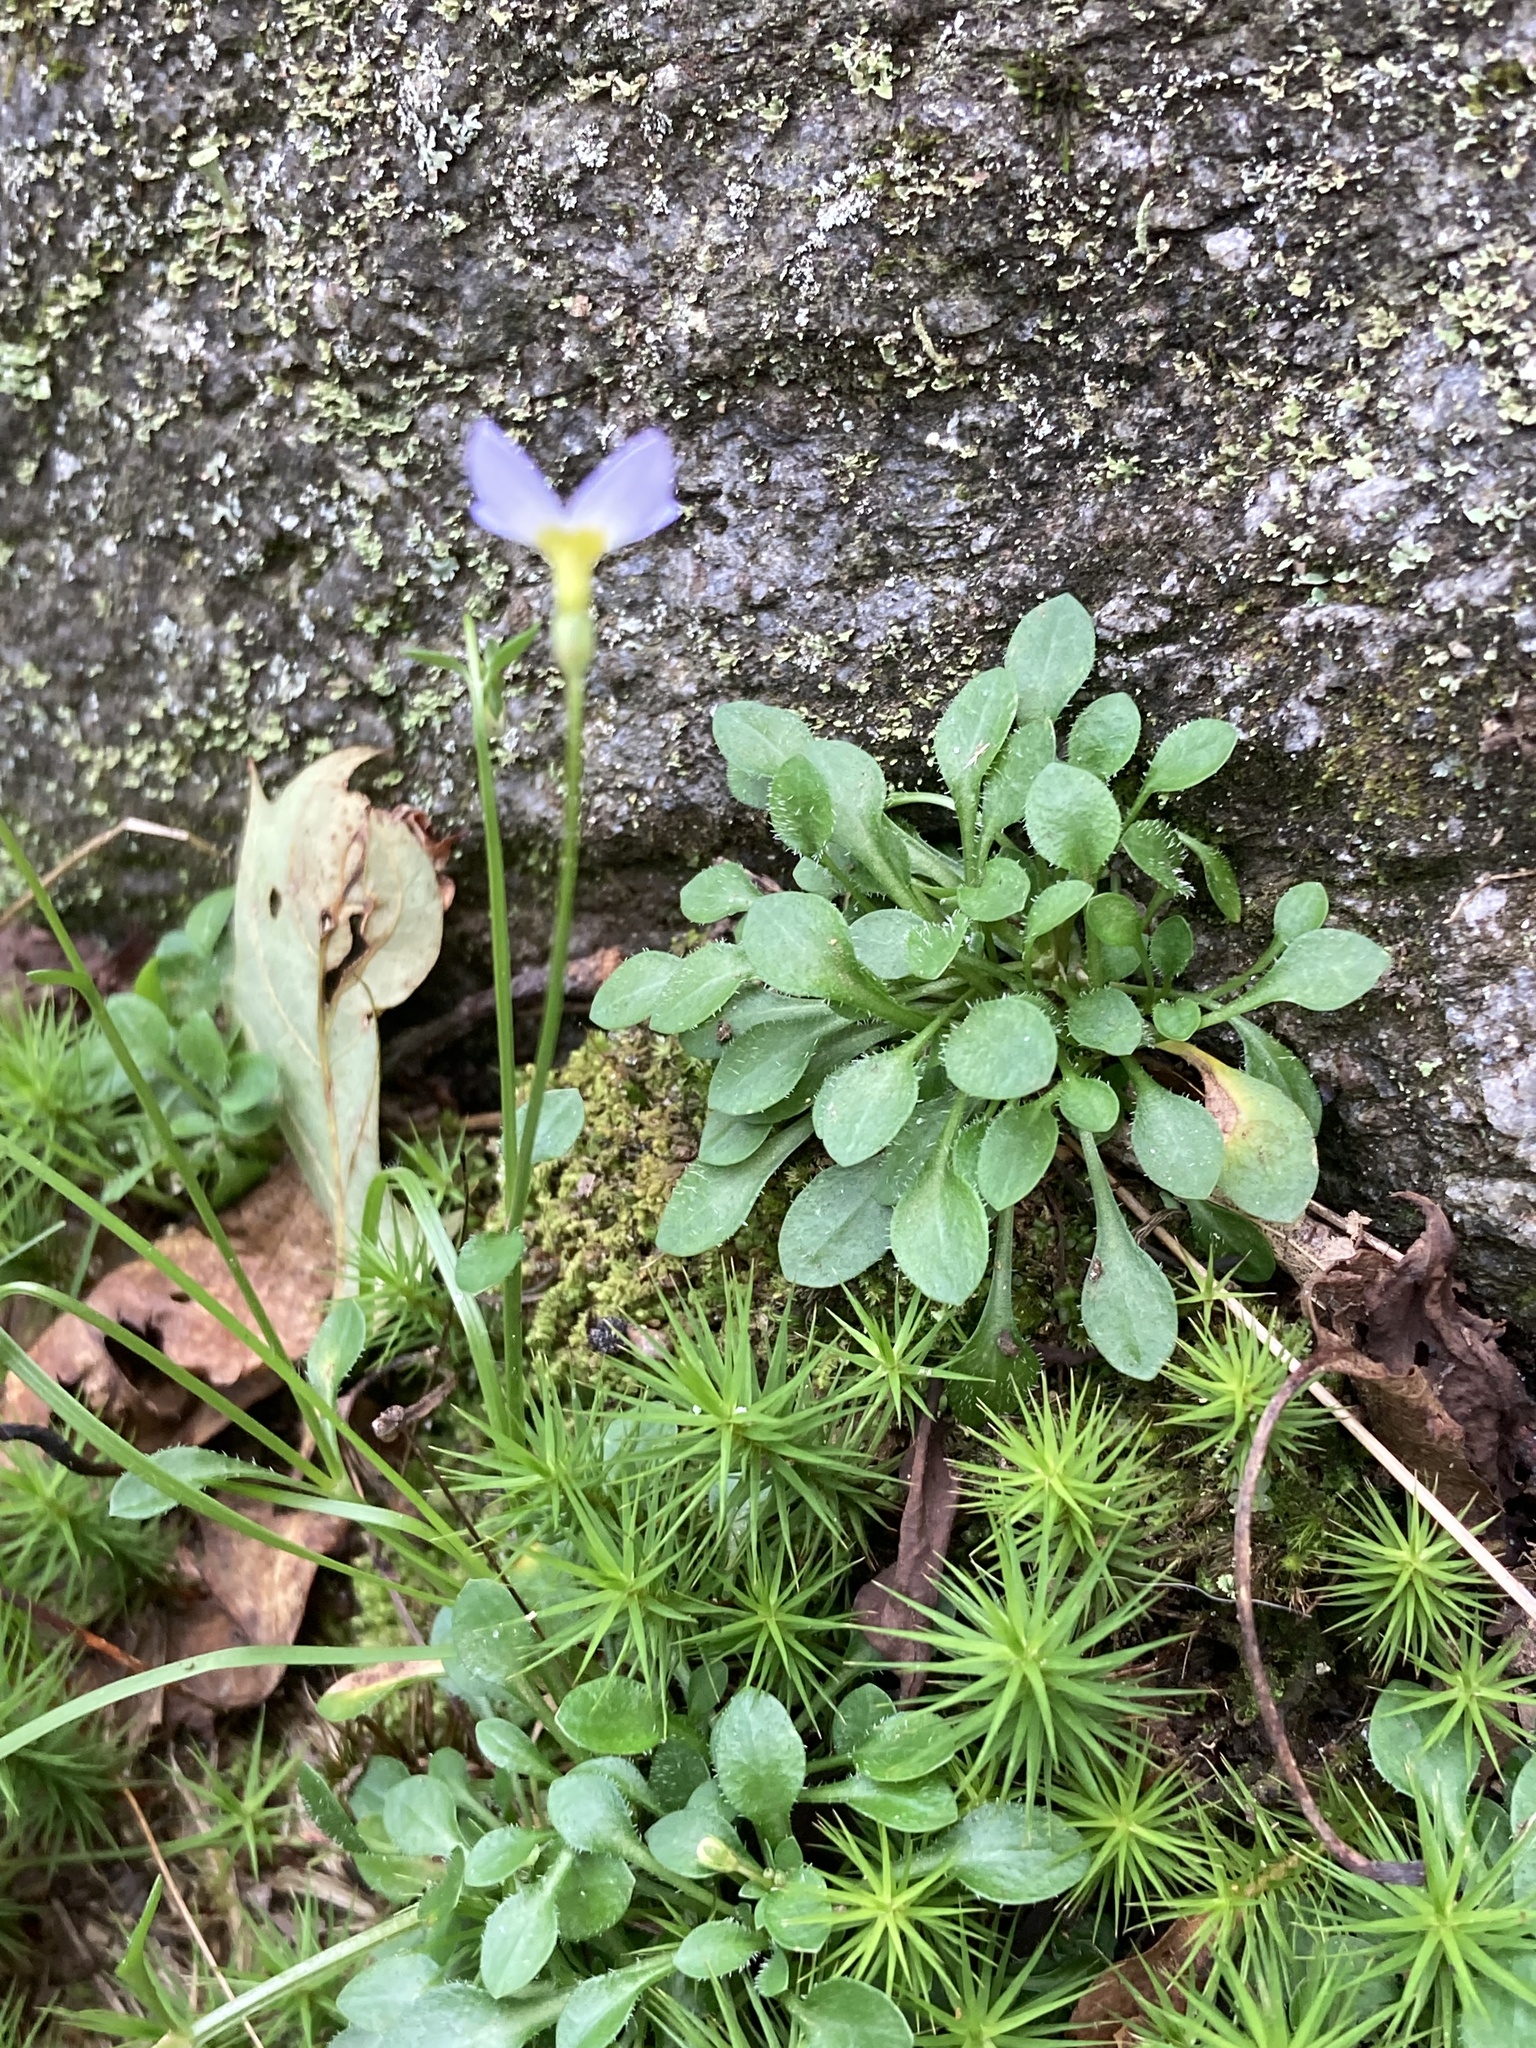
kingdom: Plantae
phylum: Tracheophyta
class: Magnoliopsida
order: Gentianales
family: Rubiaceae
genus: Houstonia
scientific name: Houstonia caerulea
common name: Bluets
